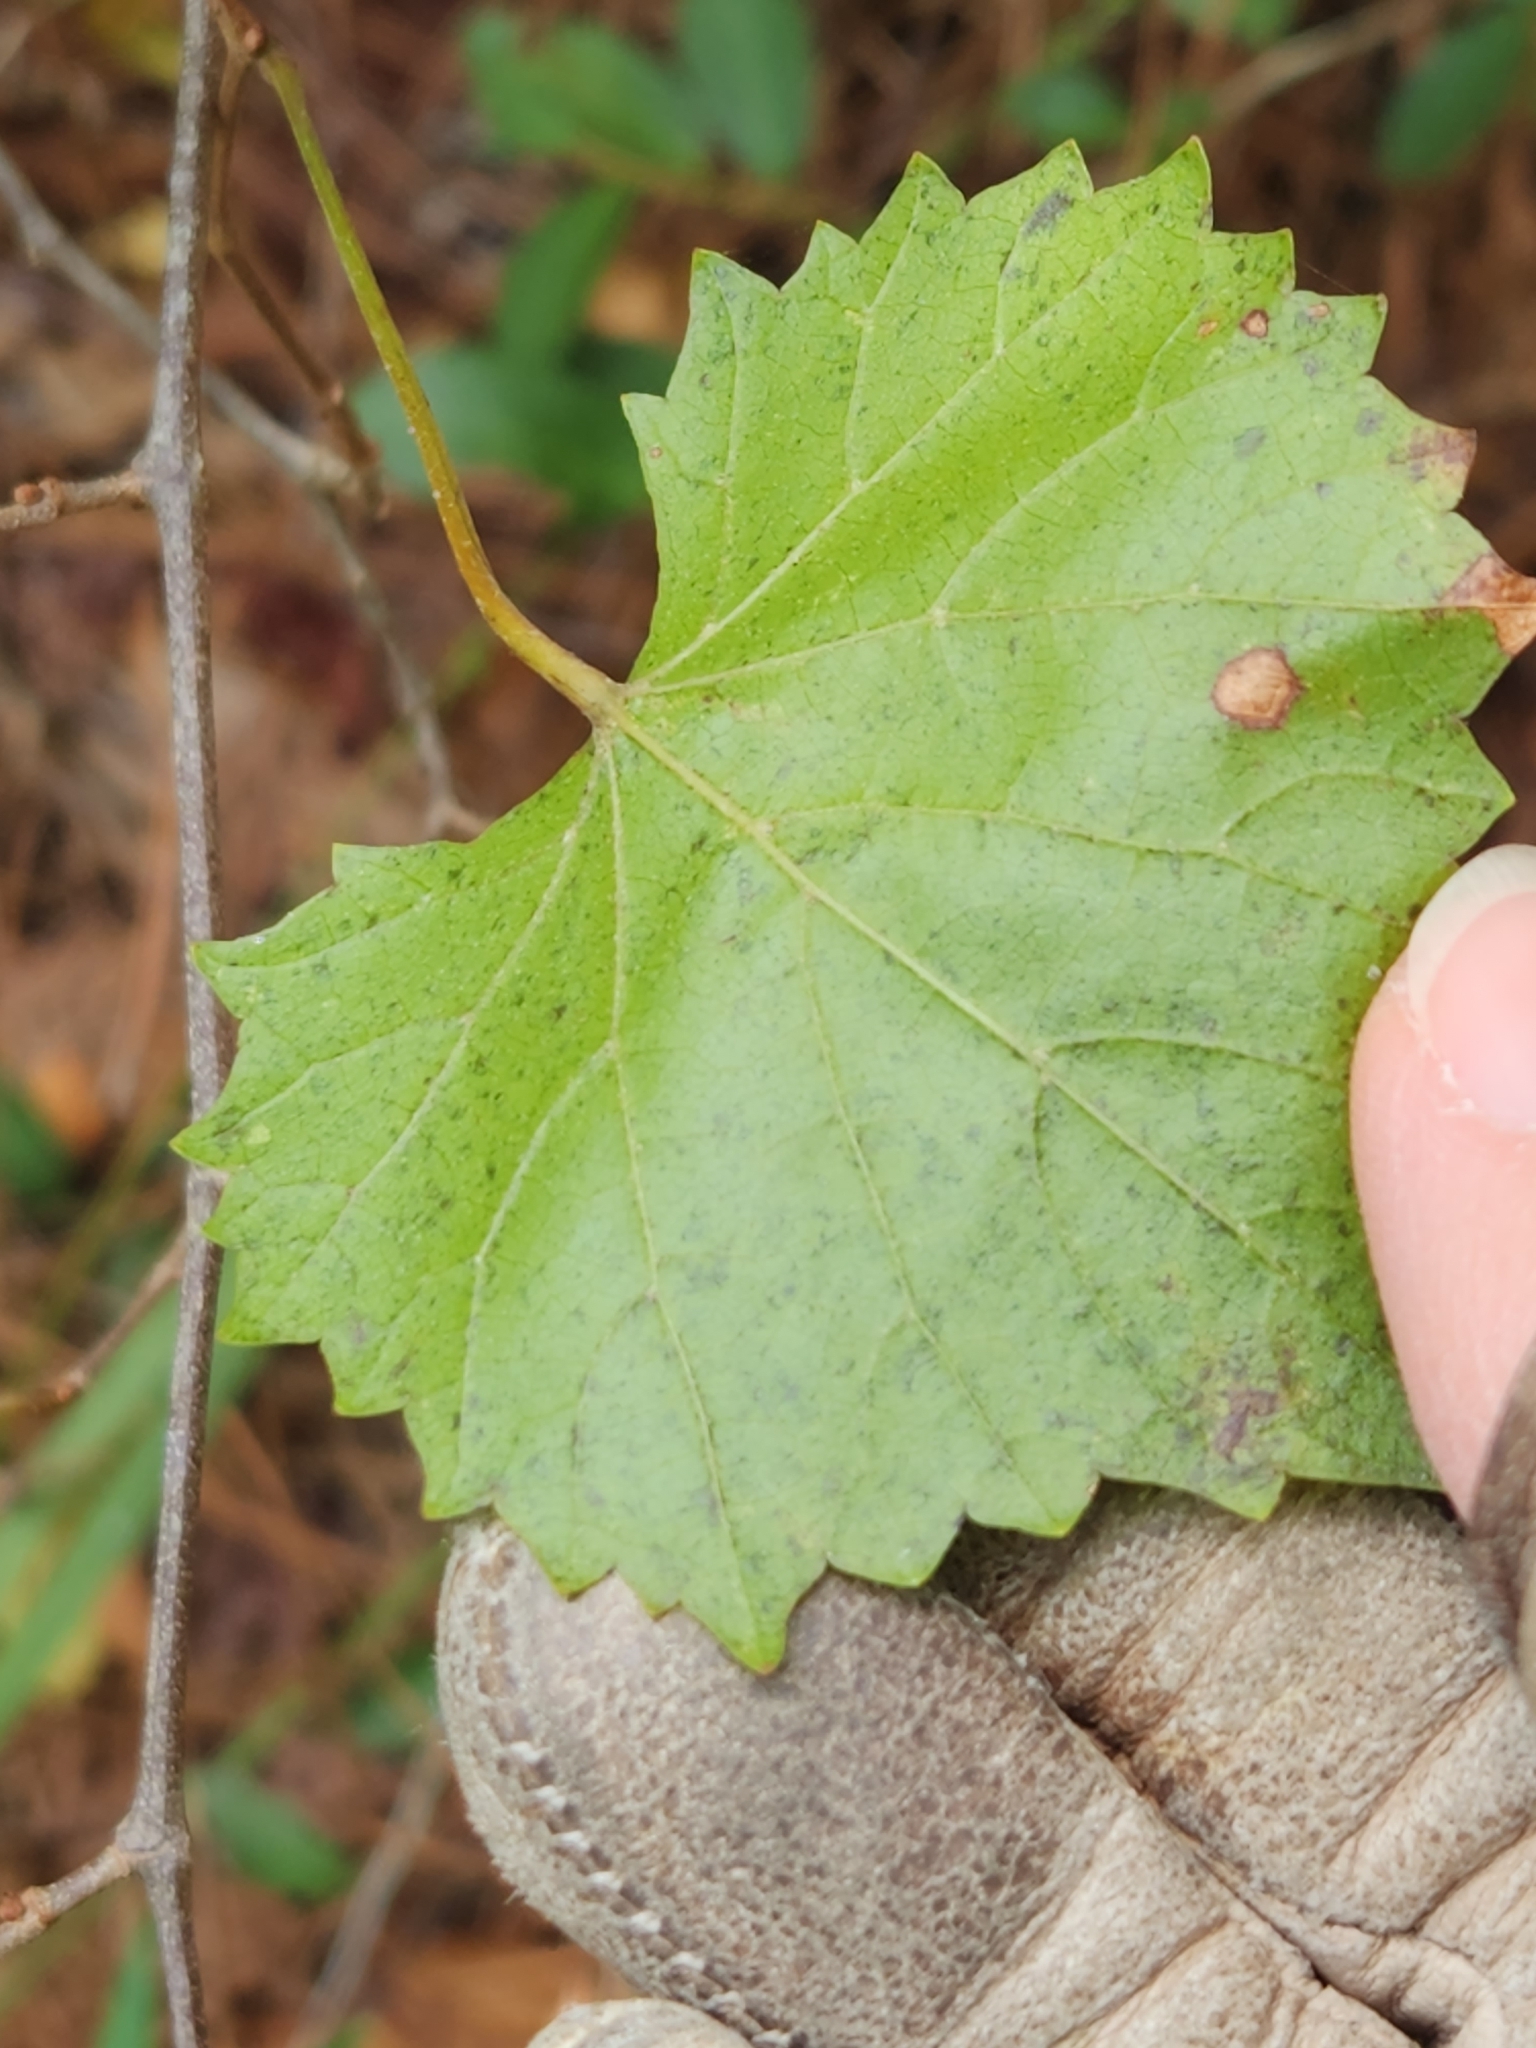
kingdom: Plantae
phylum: Tracheophyta
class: Magnoliopsida
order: Vitales
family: Vitaceae
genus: Vitis
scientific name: Vitis rotundifolia
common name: Muscadine grape
